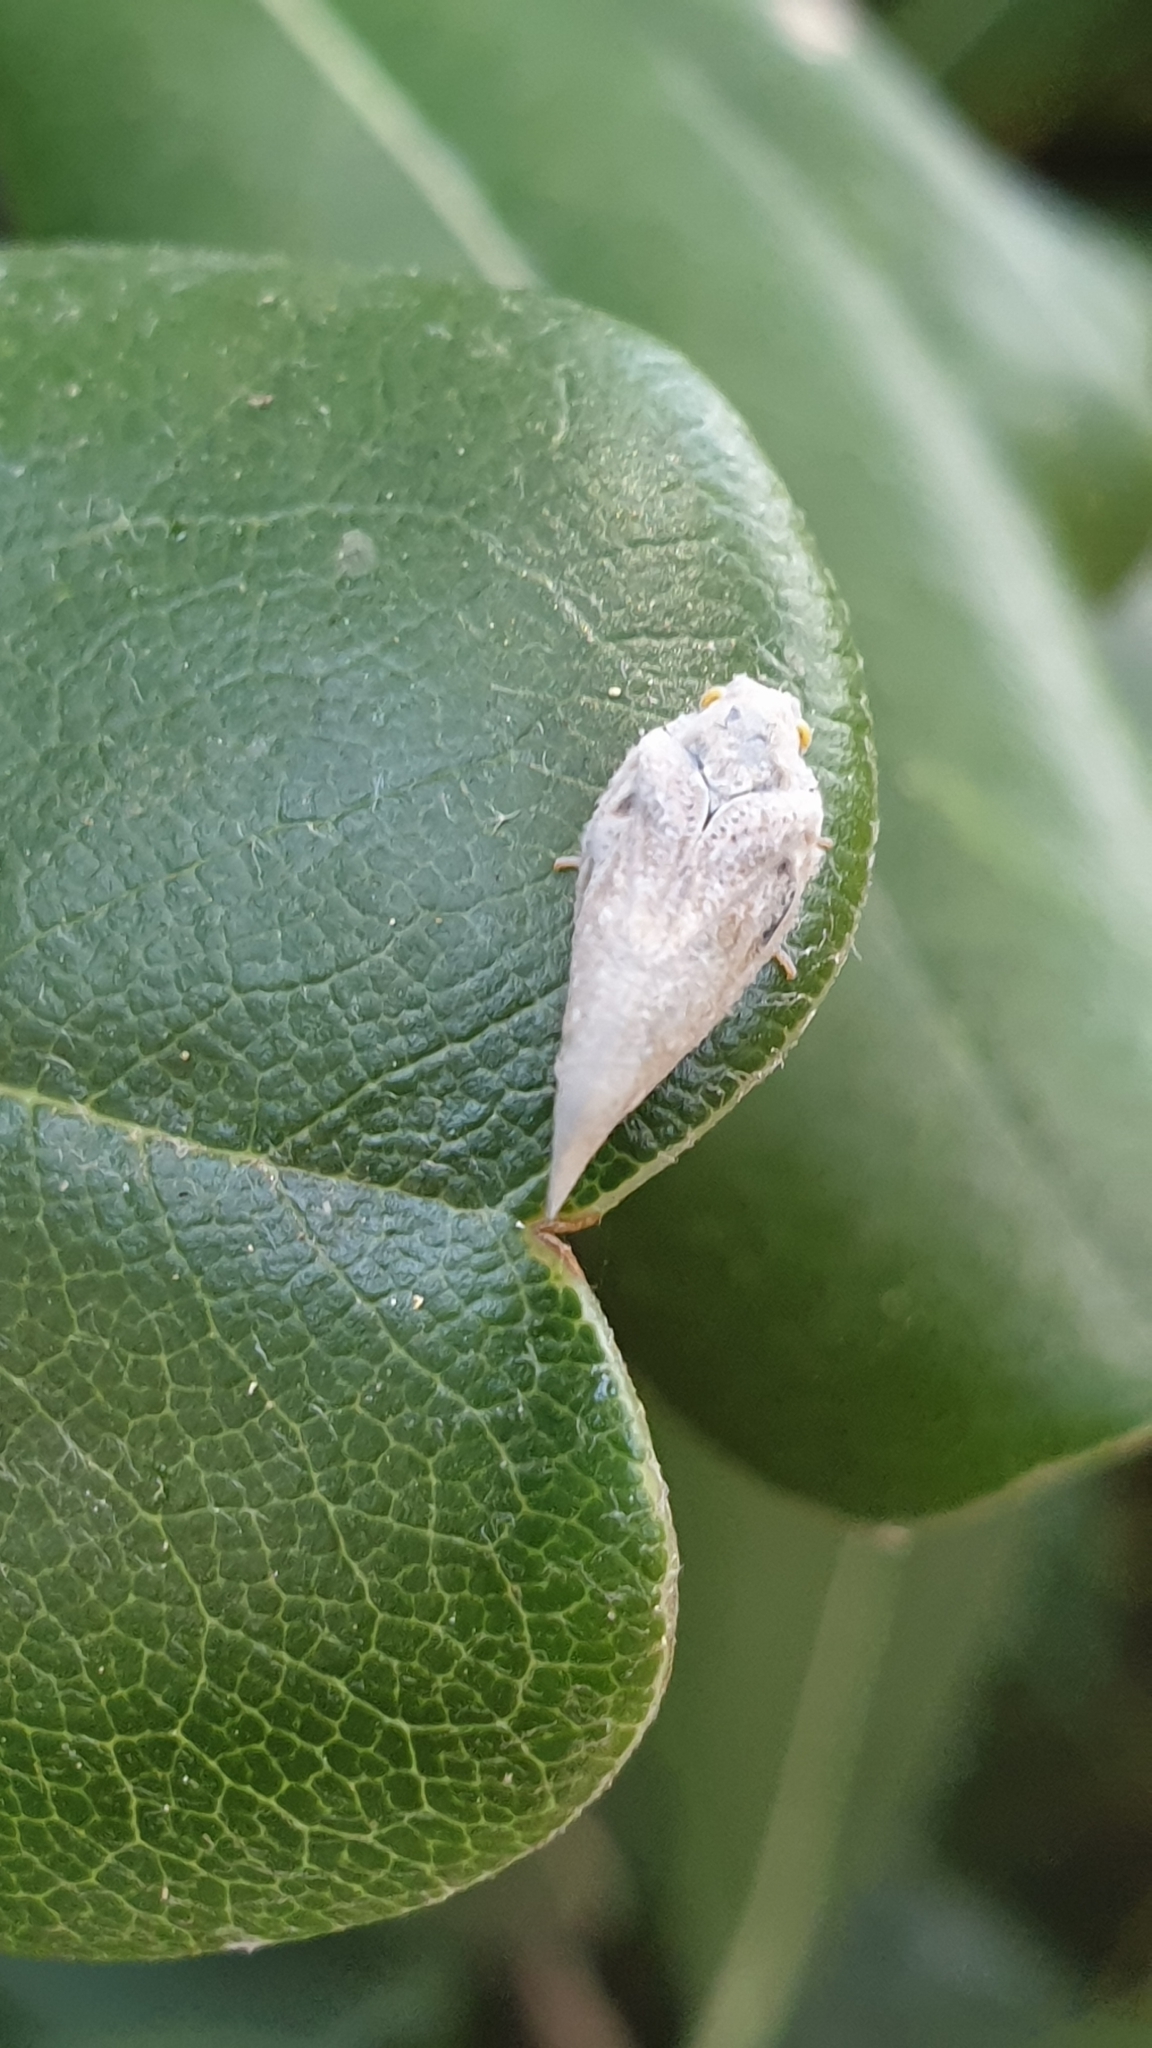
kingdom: Animalia
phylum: Arthropoda
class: Insecta
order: Hemiptera
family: Flatidae
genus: Metcalfa
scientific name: Metcalfa pruinosa
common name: Citrus flatid planthopper
